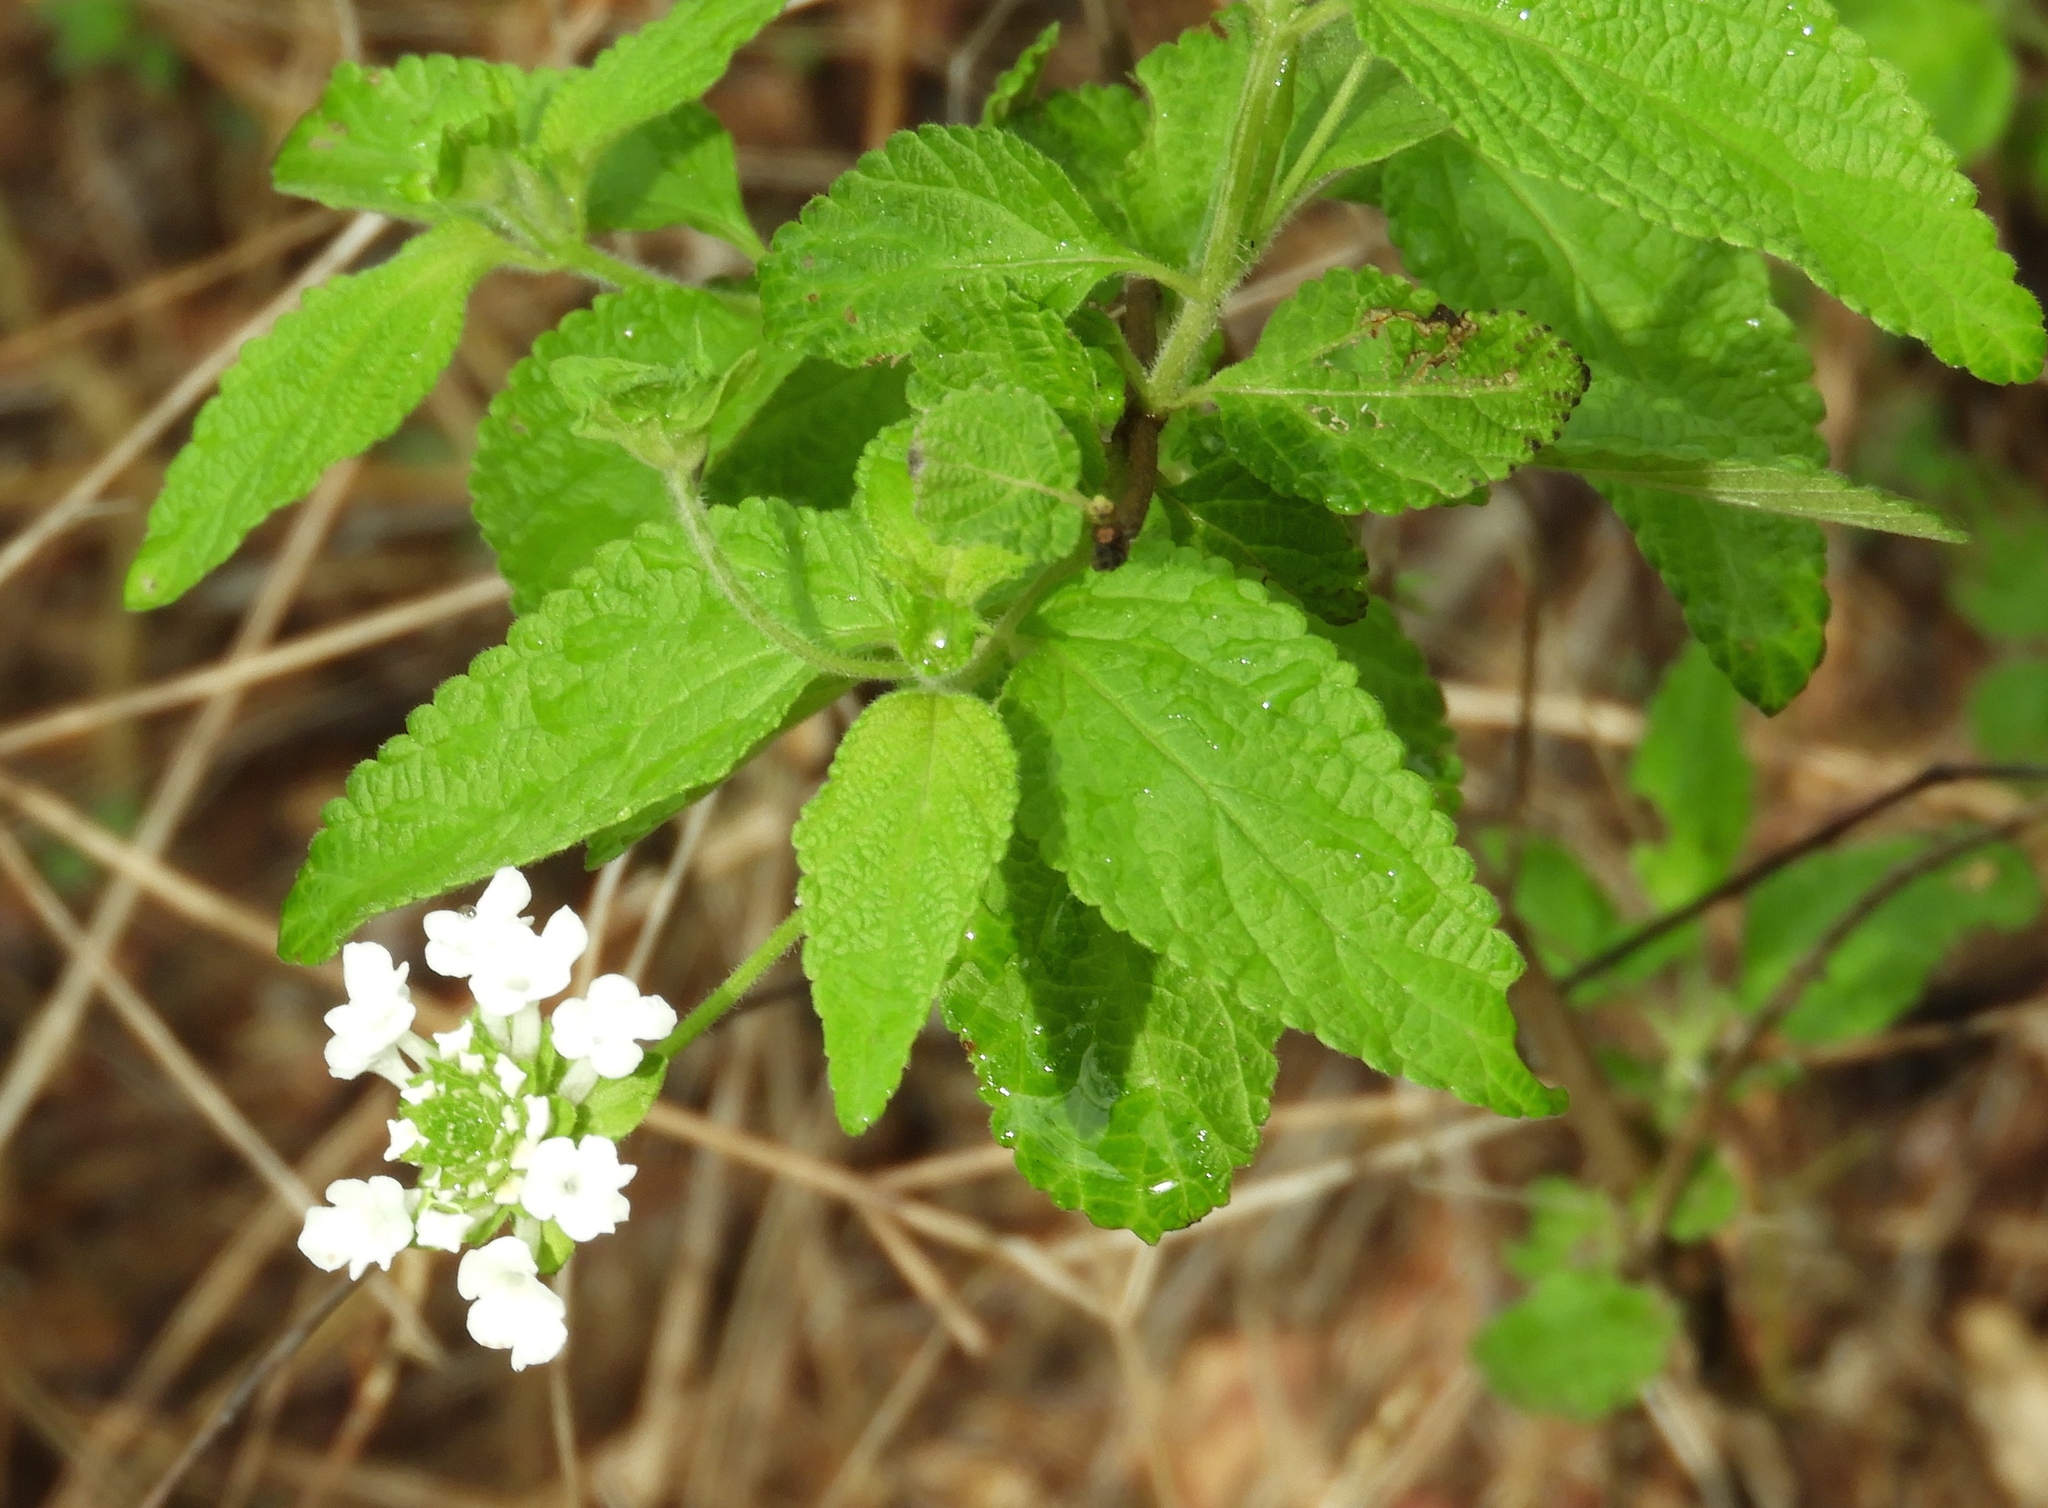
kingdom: Plantae
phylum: Tracheophyta
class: Magnoliopsida
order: Lamiales
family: Verbenaceae
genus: Lantana
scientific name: Lantana velutina
